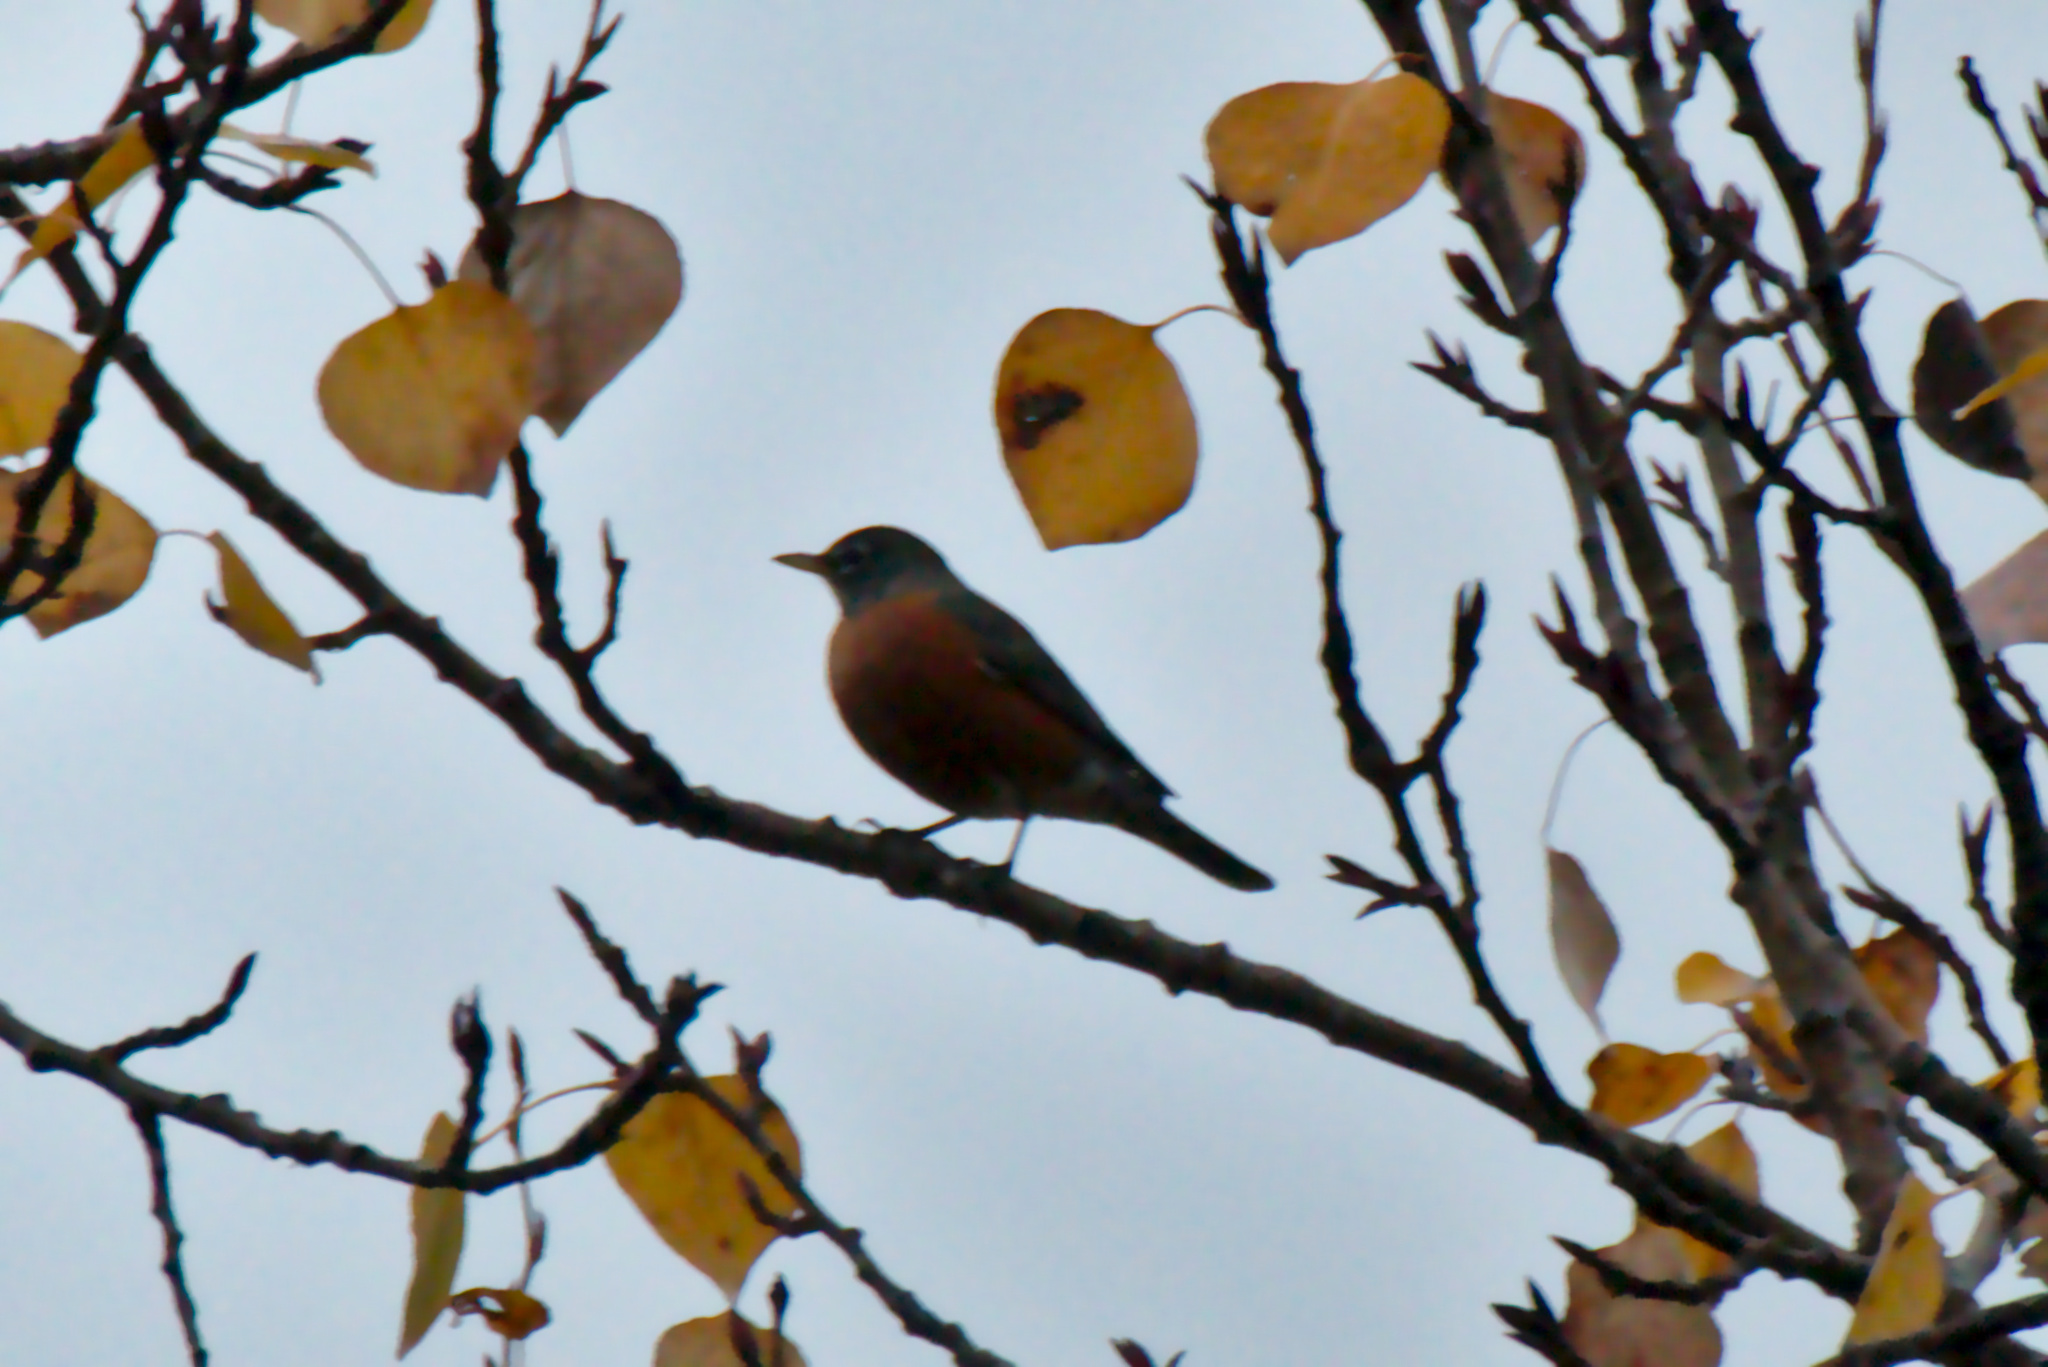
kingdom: Animalia
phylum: Chordata
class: Aves
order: Passeriformes
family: Turdidae
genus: Turdus
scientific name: Turdus migratorius
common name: American robin
